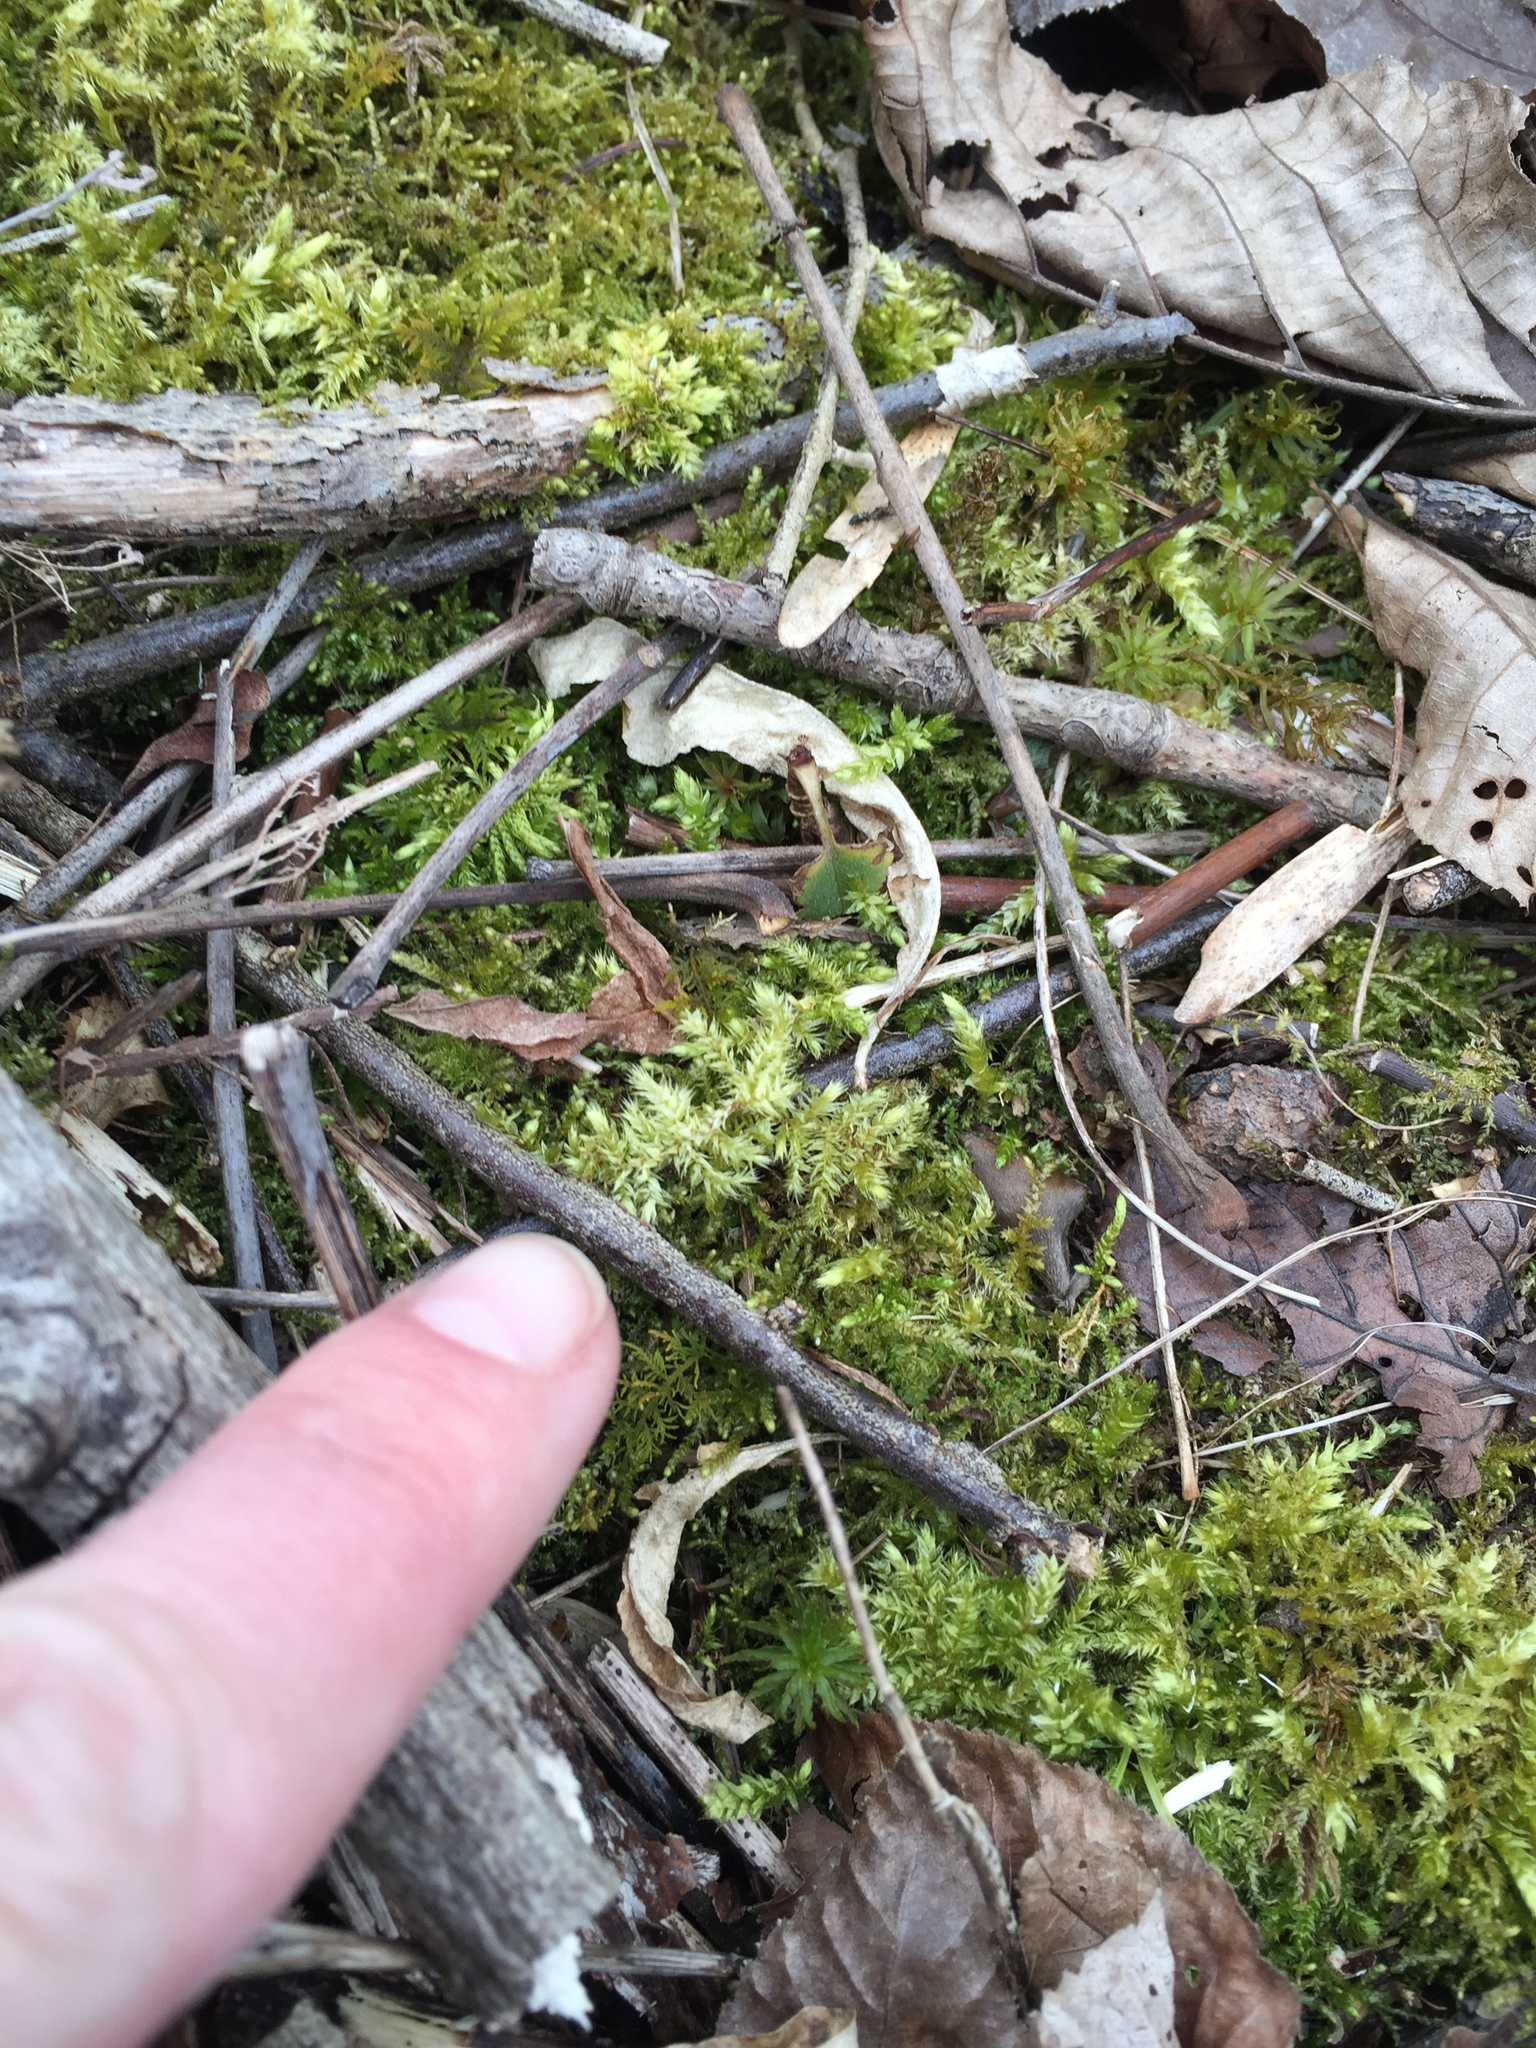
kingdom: Plantae
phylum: Bryophyta
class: Bryopsida
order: Hypnales
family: Hylocomiaceae
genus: Hylocomiadelphus
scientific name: Hylocomiadelphus triquetrus
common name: Rough goose neck moss
